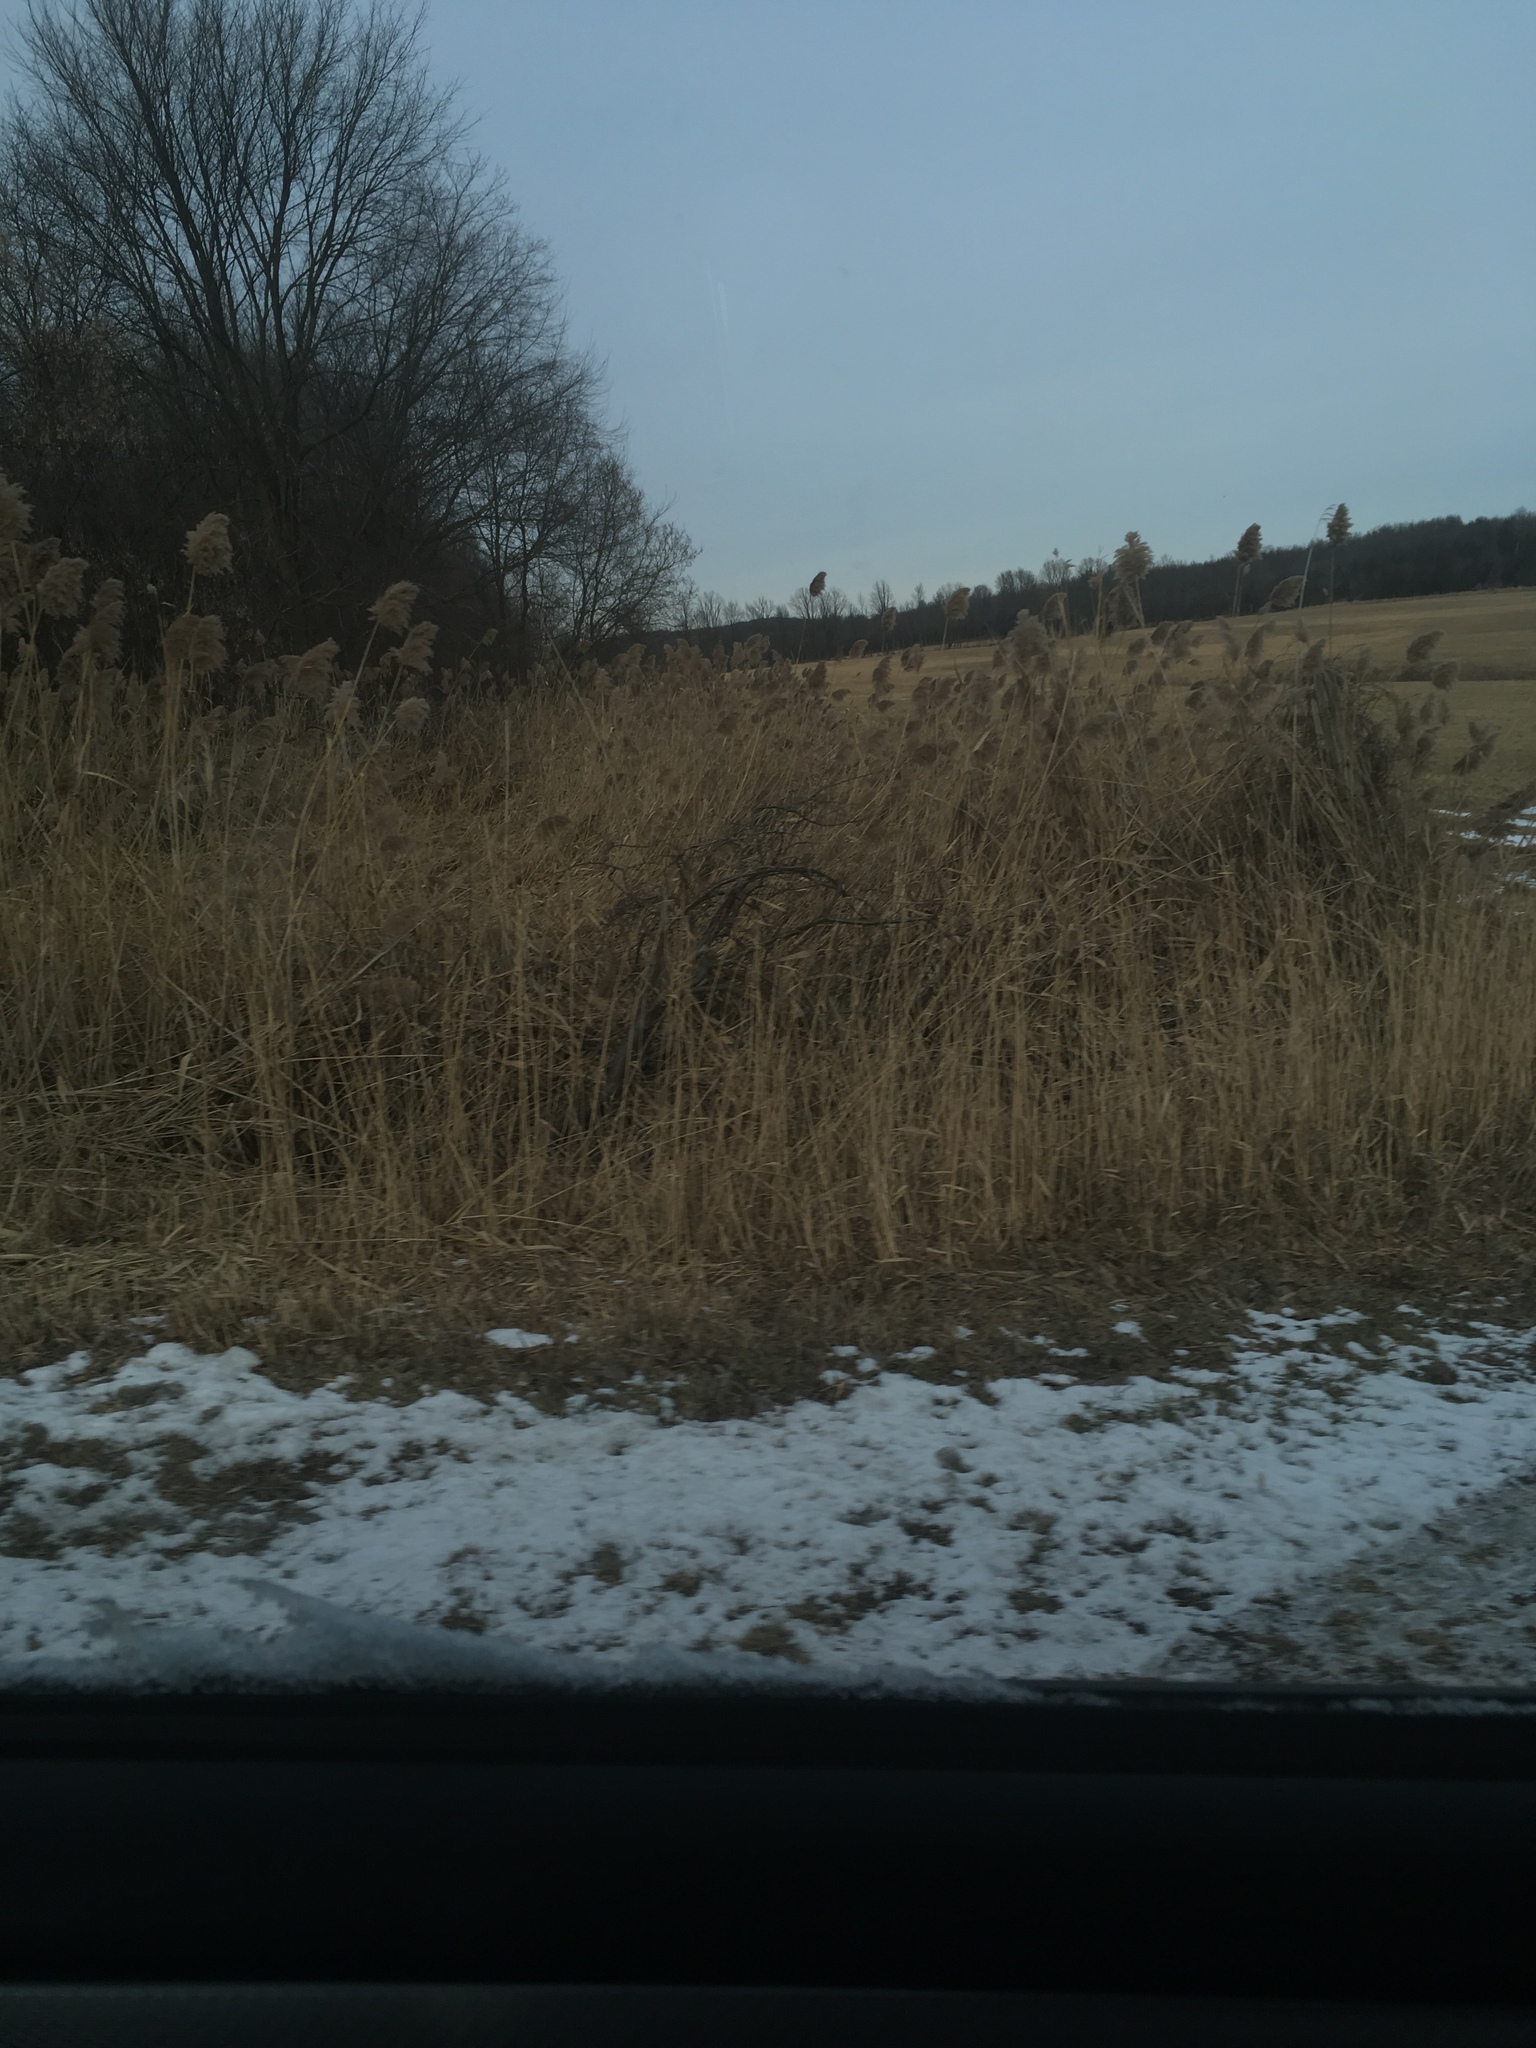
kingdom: Plantae
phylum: Tracheophyta
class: Liliopsida
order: Poales
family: Poaceae
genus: Phragmites
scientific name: Phragmites australis
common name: Common reed
